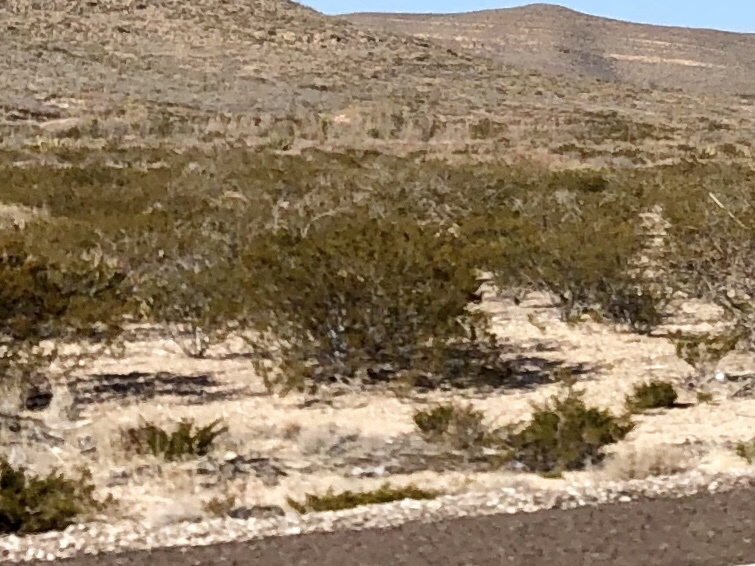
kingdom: Plantae
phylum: Tracheophyta
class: Magnoliopsida
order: Zygophyllales
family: Zygophyllaceae
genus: Larrea
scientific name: Larrea tridentata
